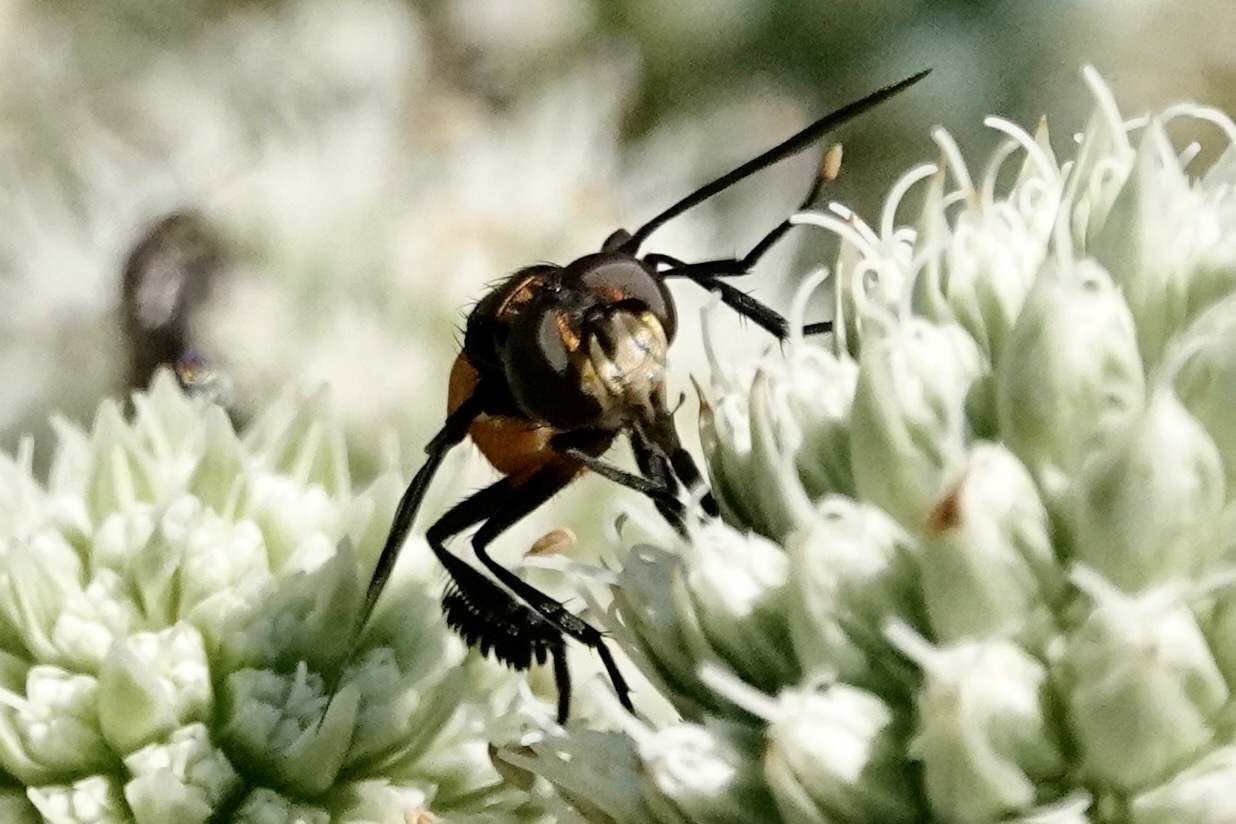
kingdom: Animalia
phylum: Arthropoda
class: Insecta
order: Diptera
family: Tachinidae
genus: Trichopoda
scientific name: Trichopoda pennipes
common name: Tachinid fly
